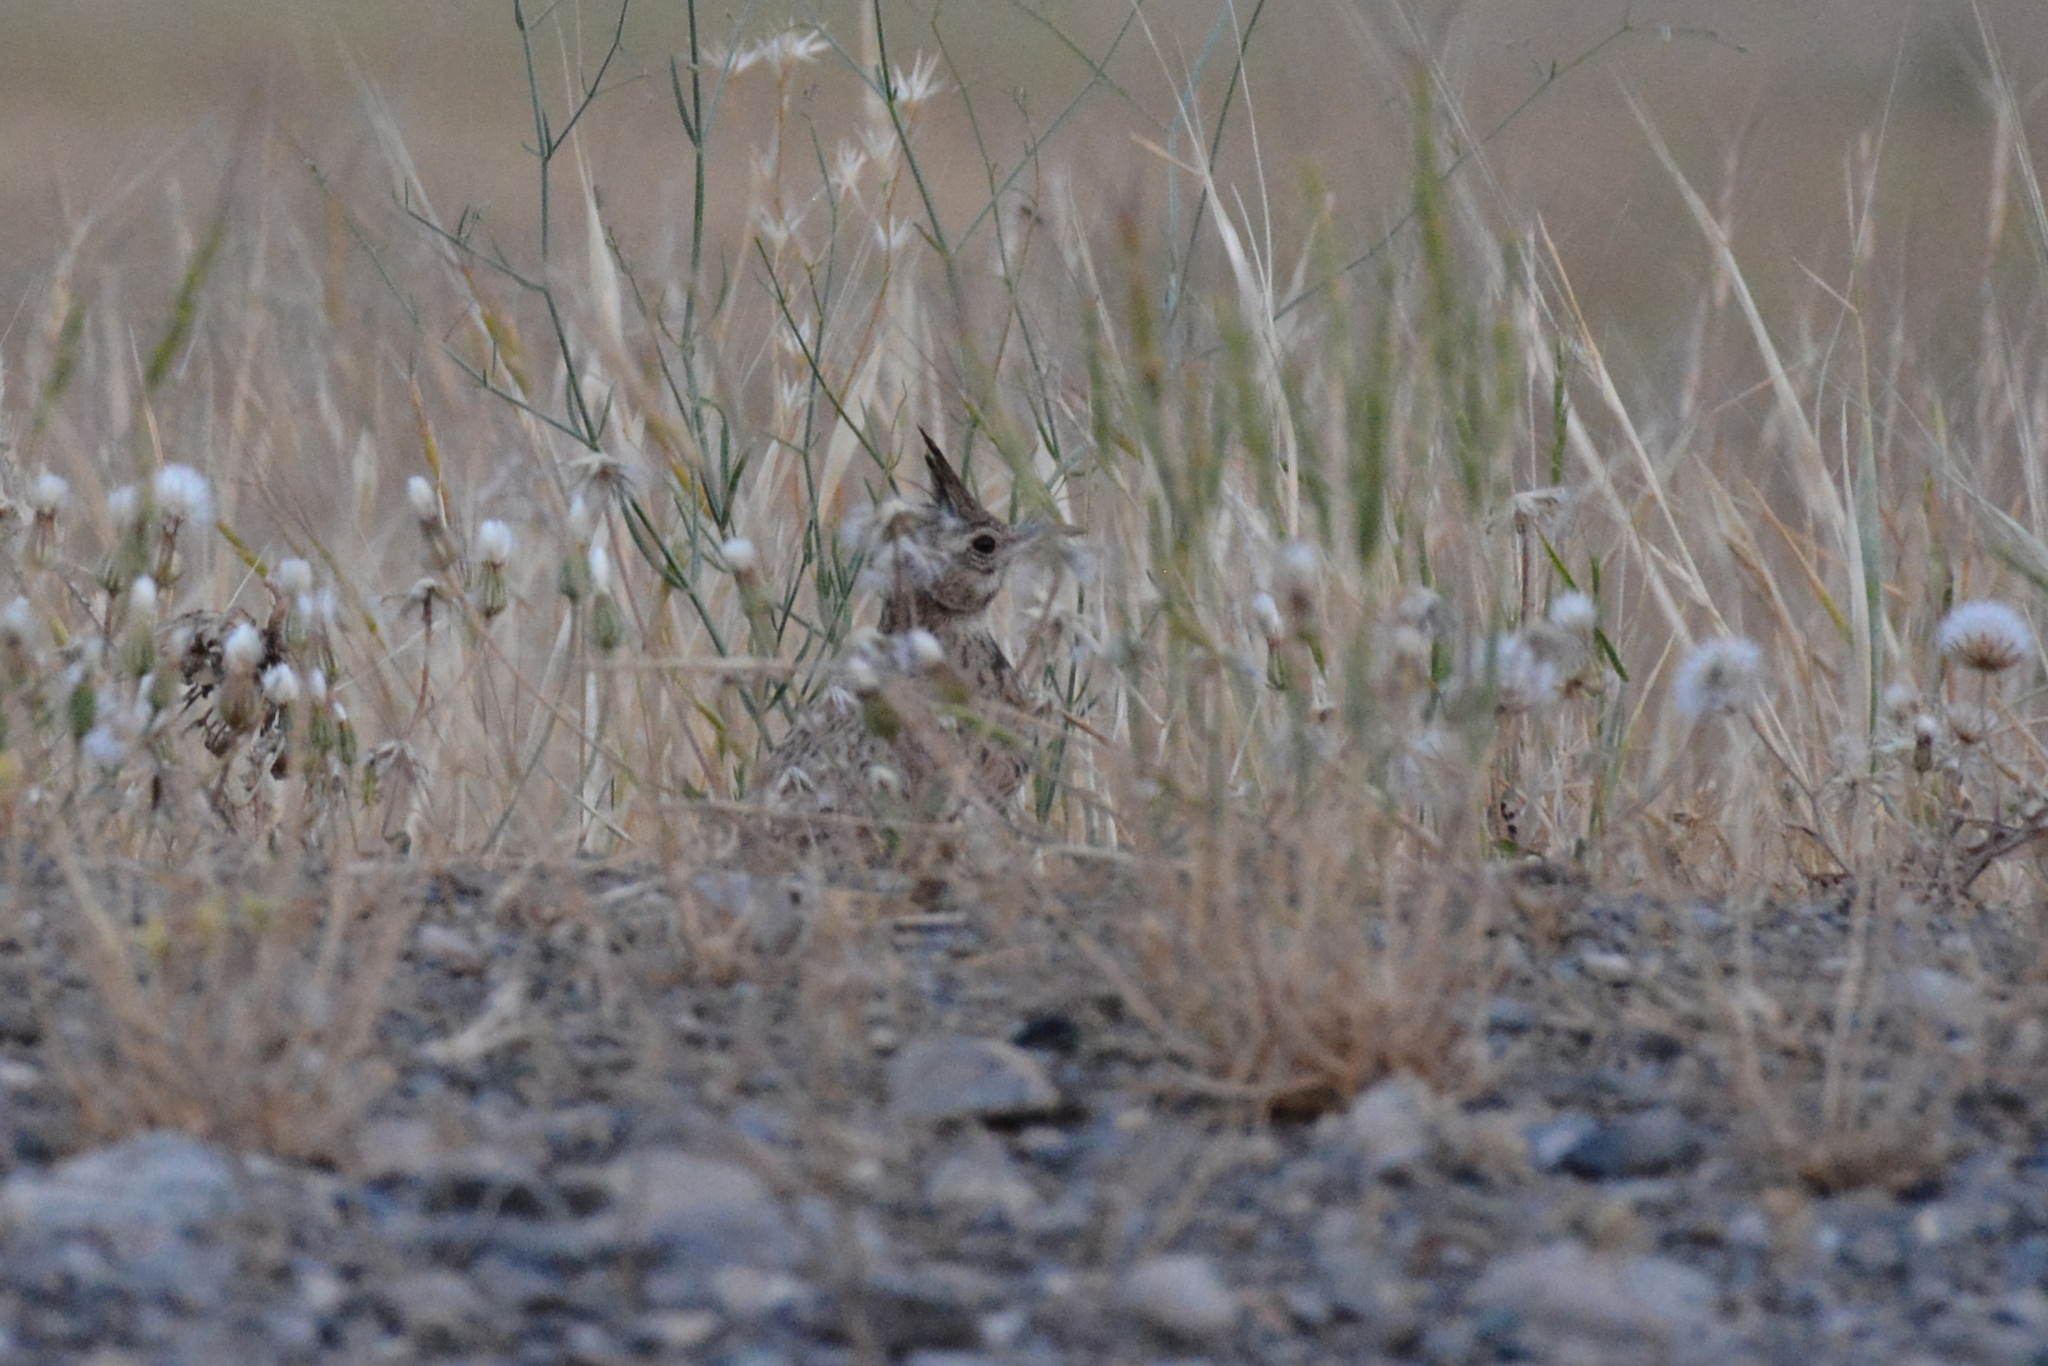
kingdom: Animalia
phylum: Chordata
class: Aves
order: Passeriformes
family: Alaudidae
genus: Galerida
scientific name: Galerida cristata
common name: Crested lark
